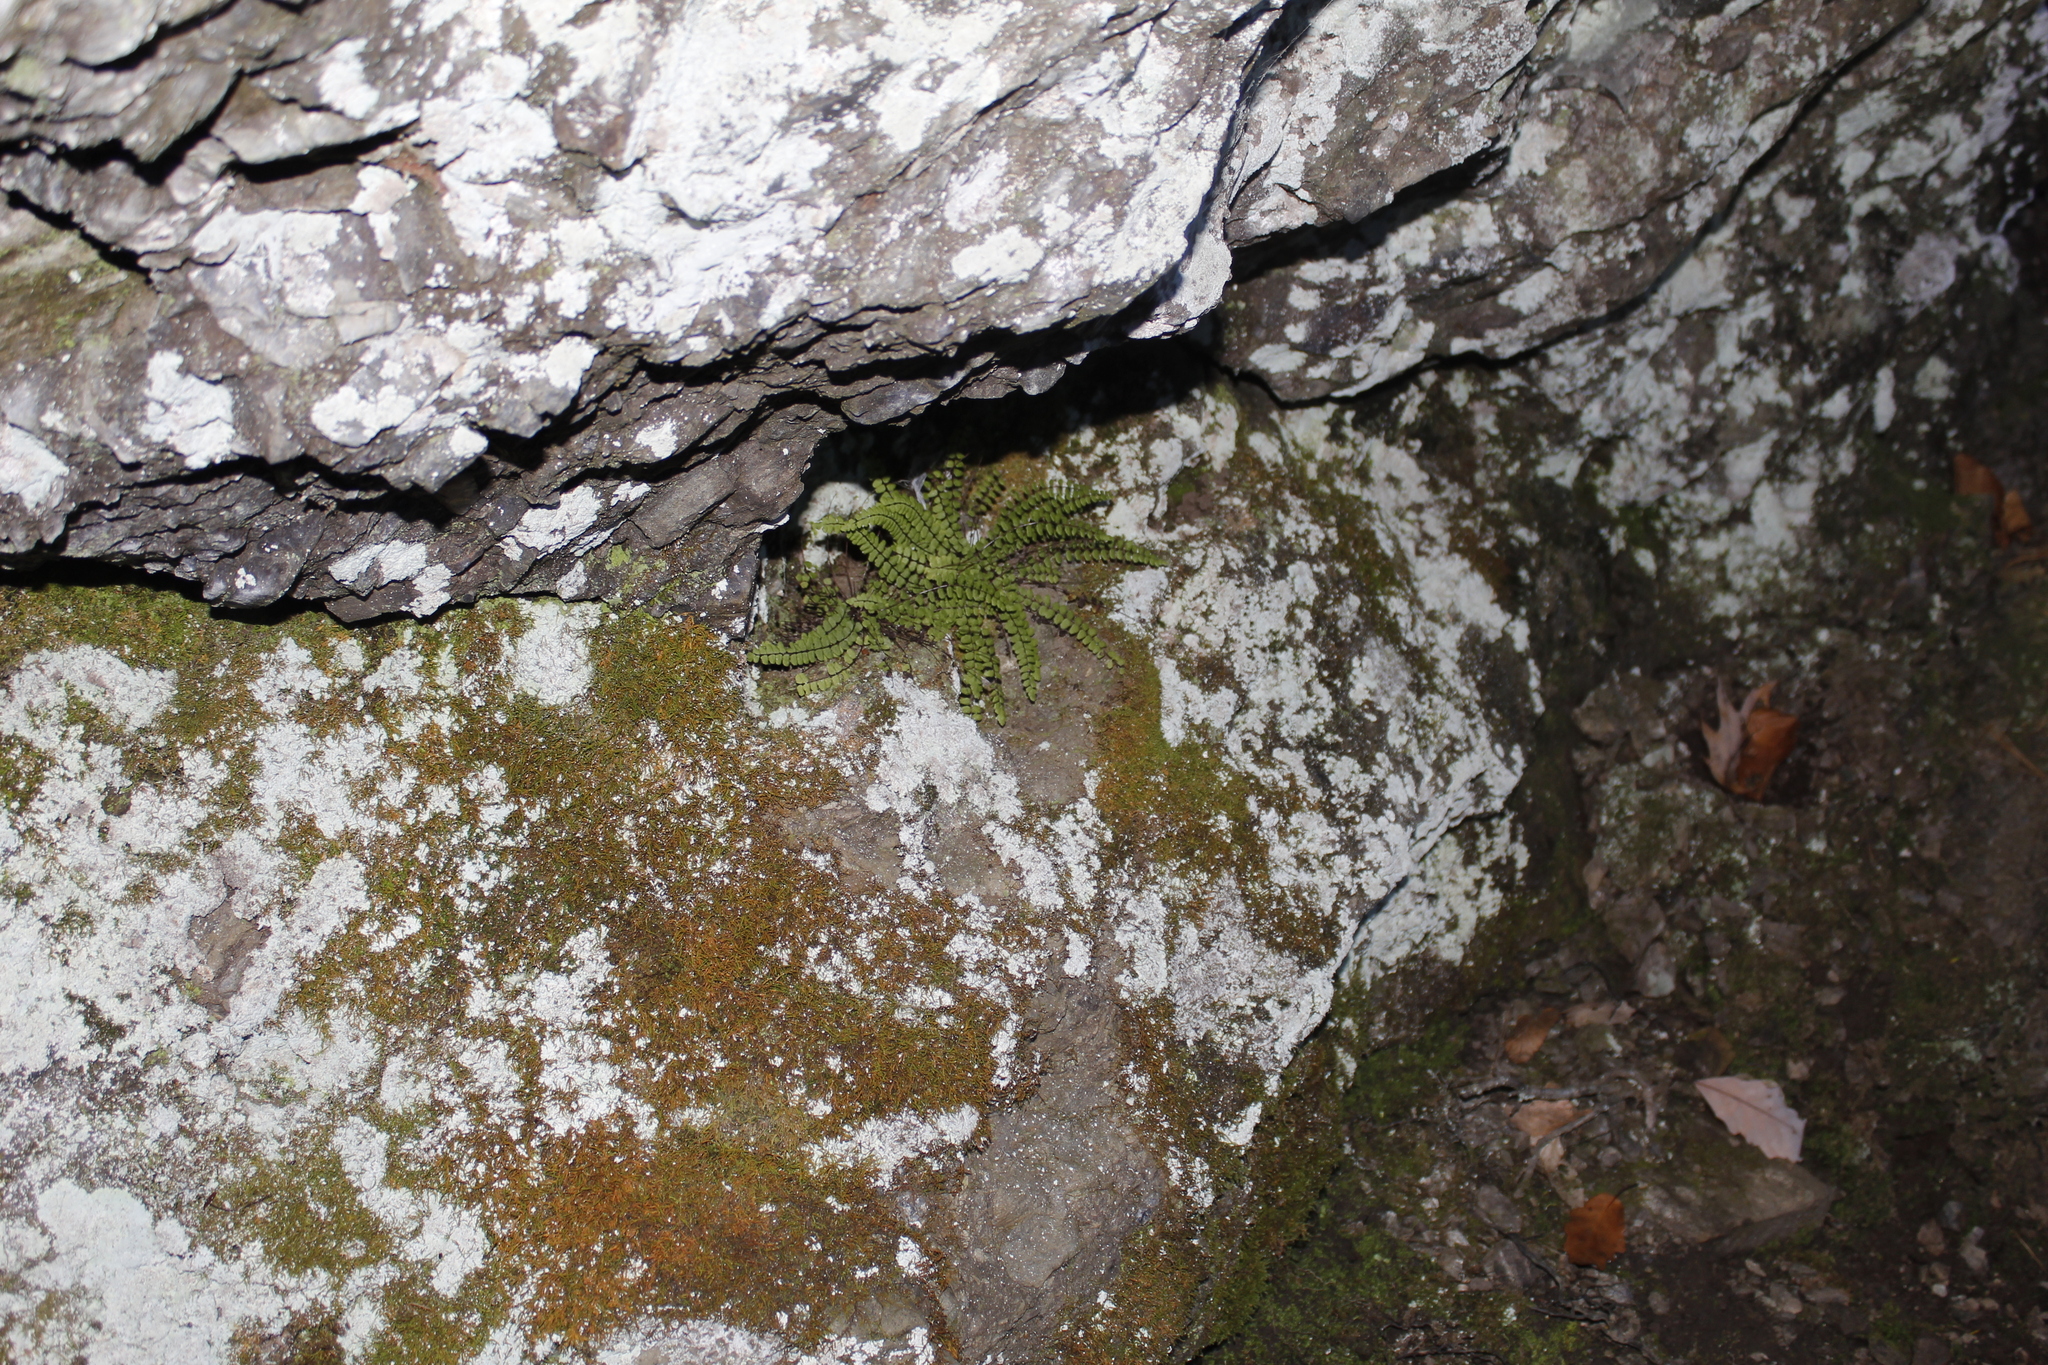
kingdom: Plantae
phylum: Tracheophyta
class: Polypodiopsida
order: Polypodiales
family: Aspleniaceae
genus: Asplenium
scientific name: Asplenium trichomanes
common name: Maidenhair spleenwort
